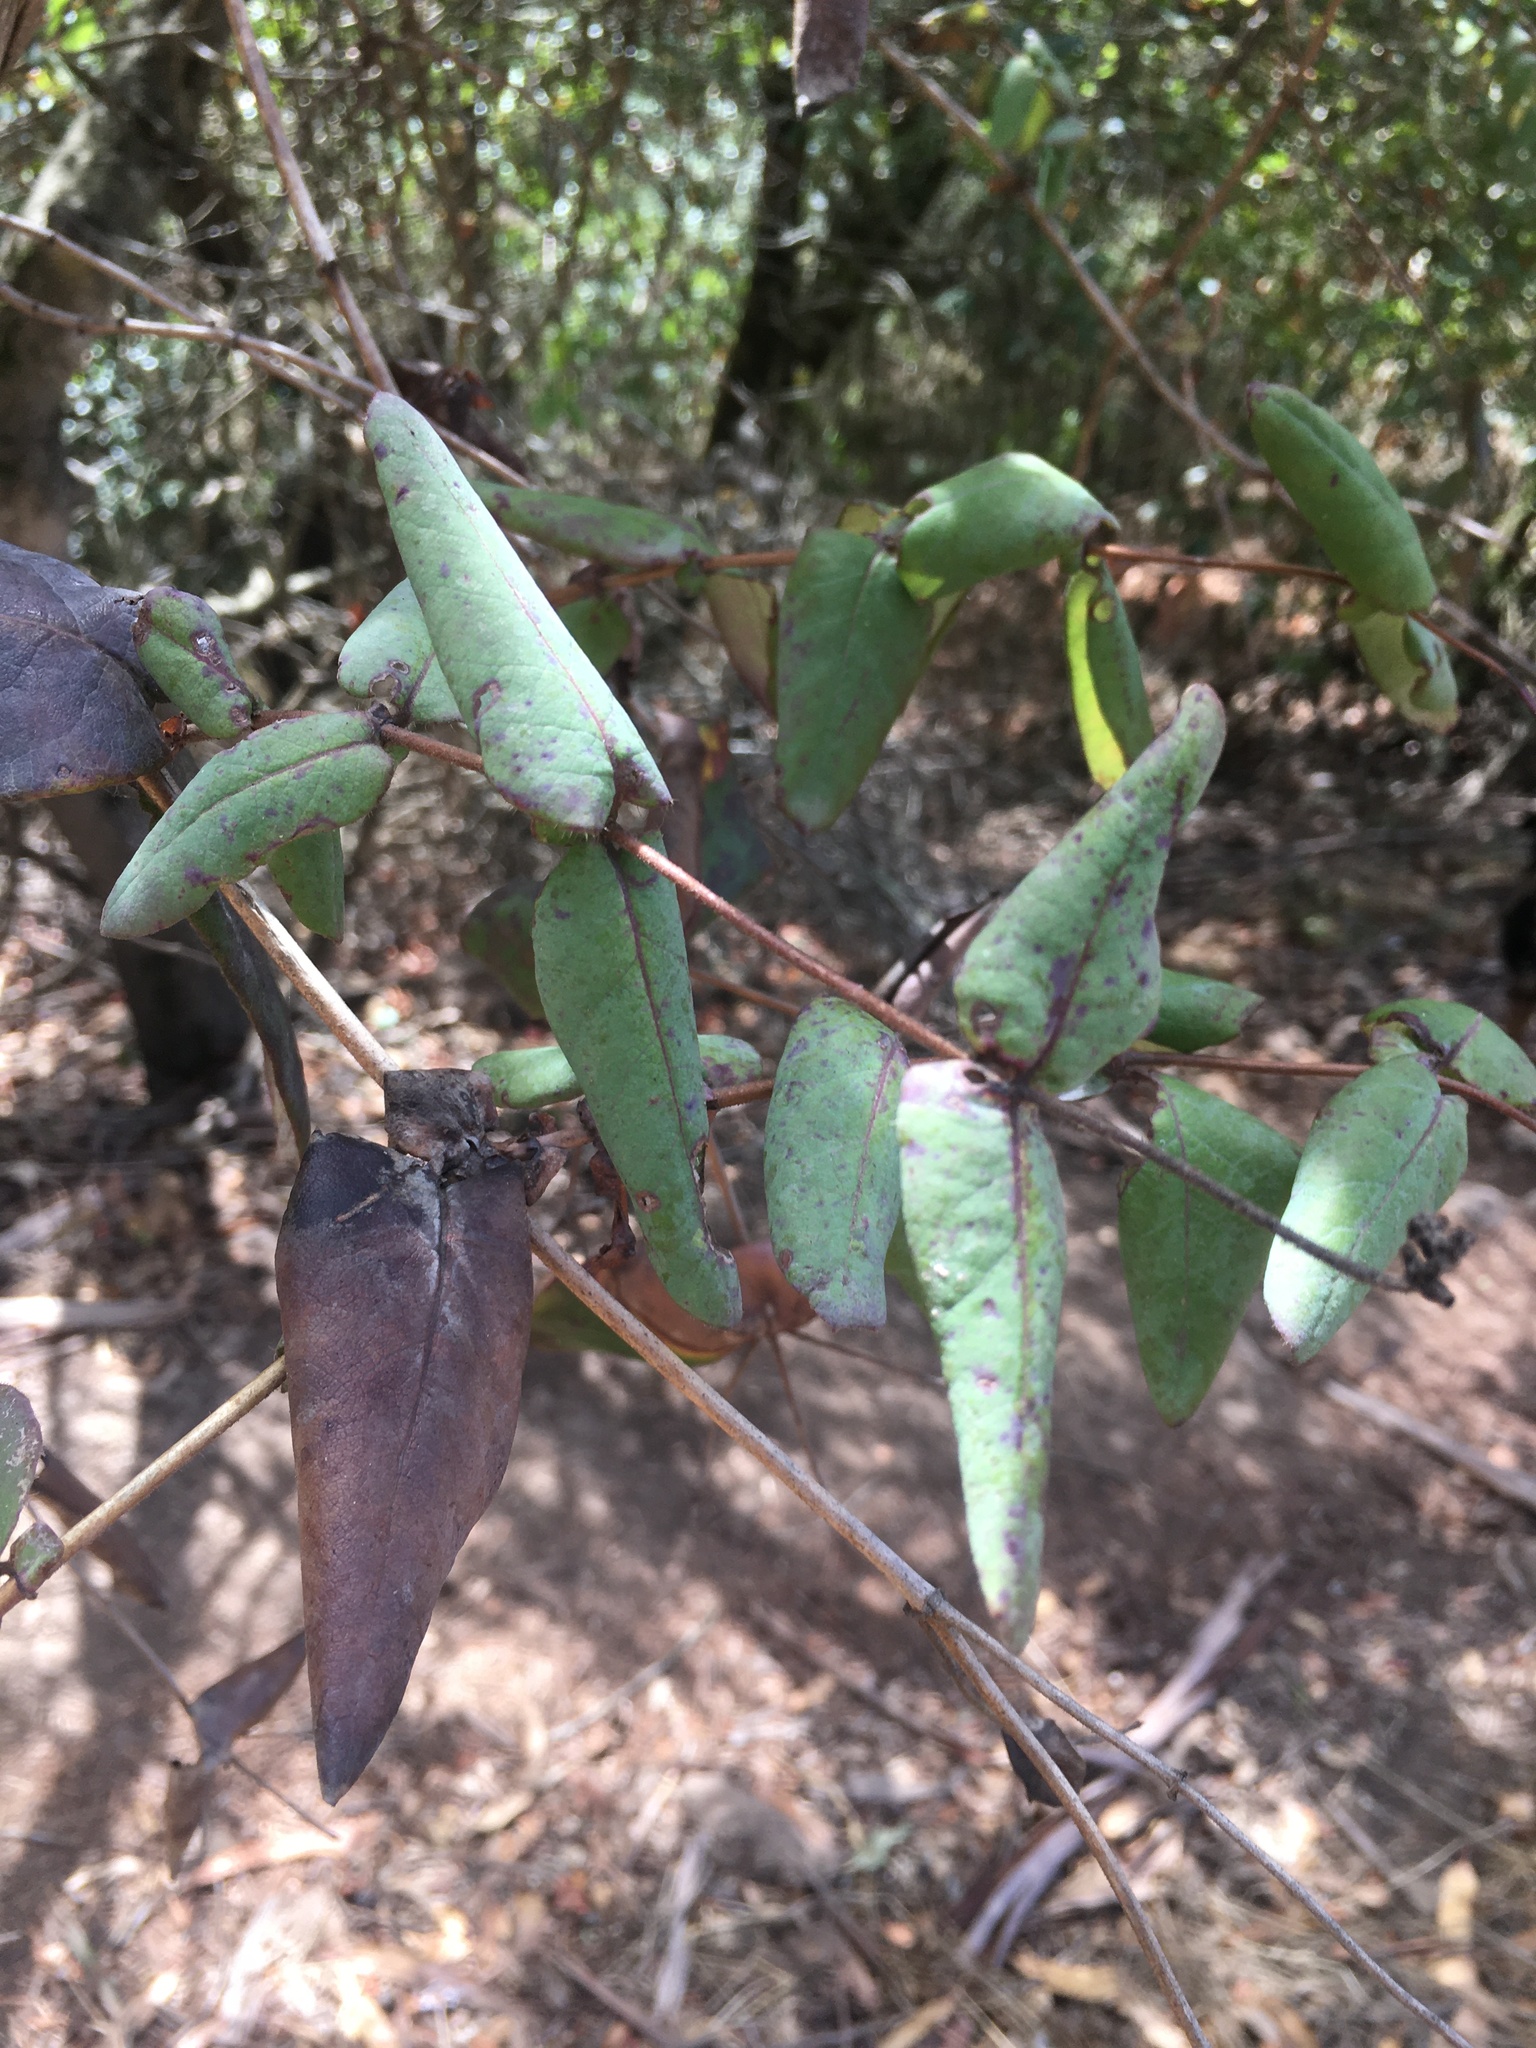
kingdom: Plantae
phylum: Tracheophyta
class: Magnoliopsida
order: Dipsacales
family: Caprifoliaceae
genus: Lonicera
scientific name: Lonicera hispidula
